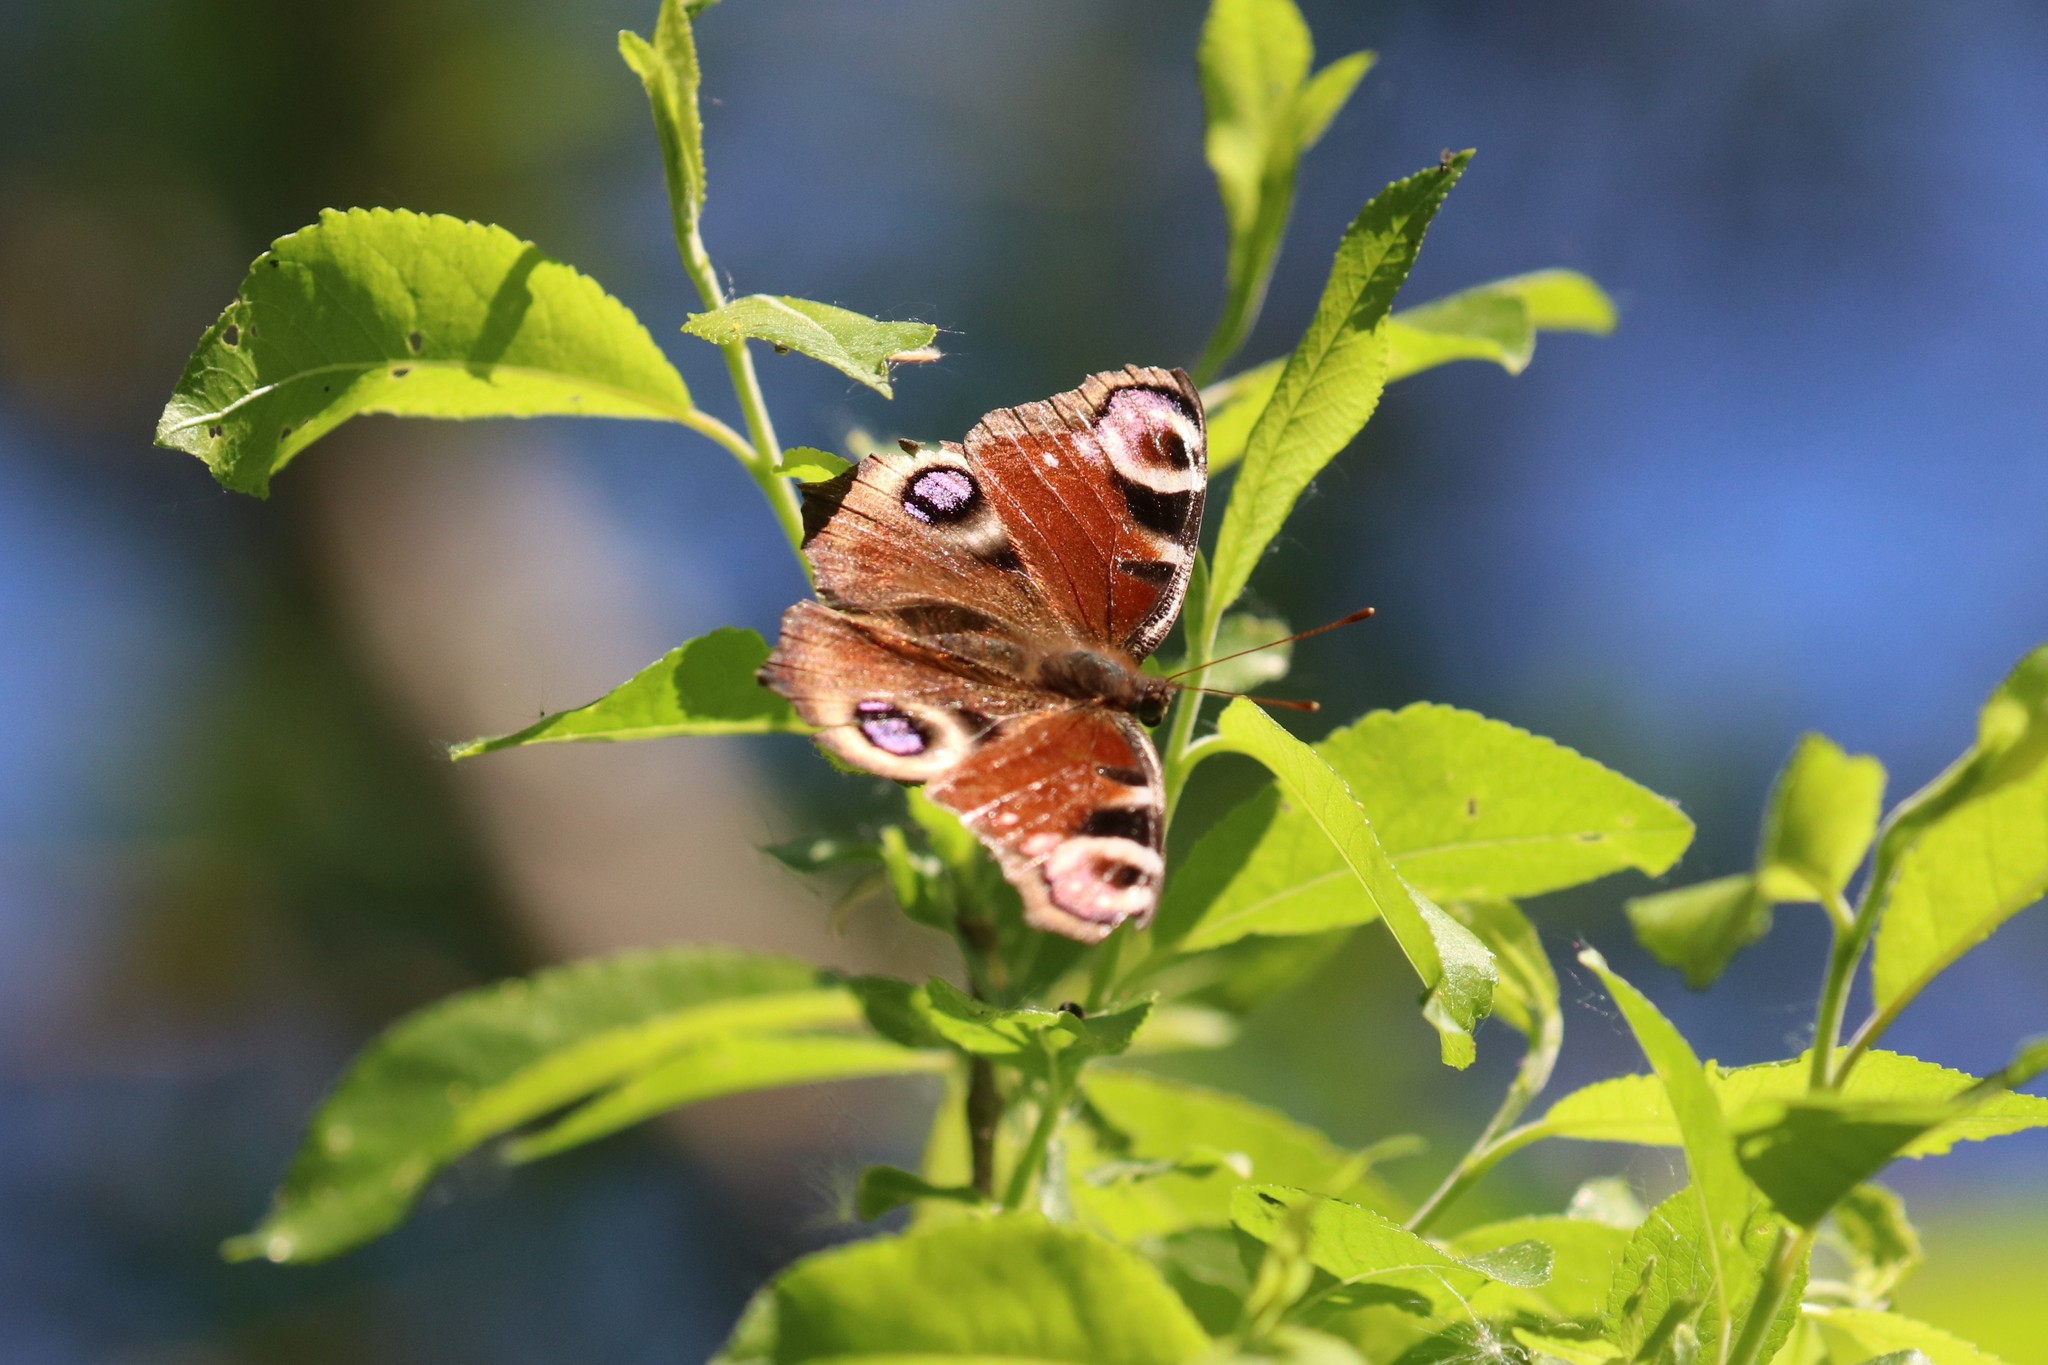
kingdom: Animalia
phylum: Arthropoda
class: Insecta
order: Lepidoptera
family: Nymphalidae
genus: Aglais
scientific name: Aglais io
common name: Peacock
